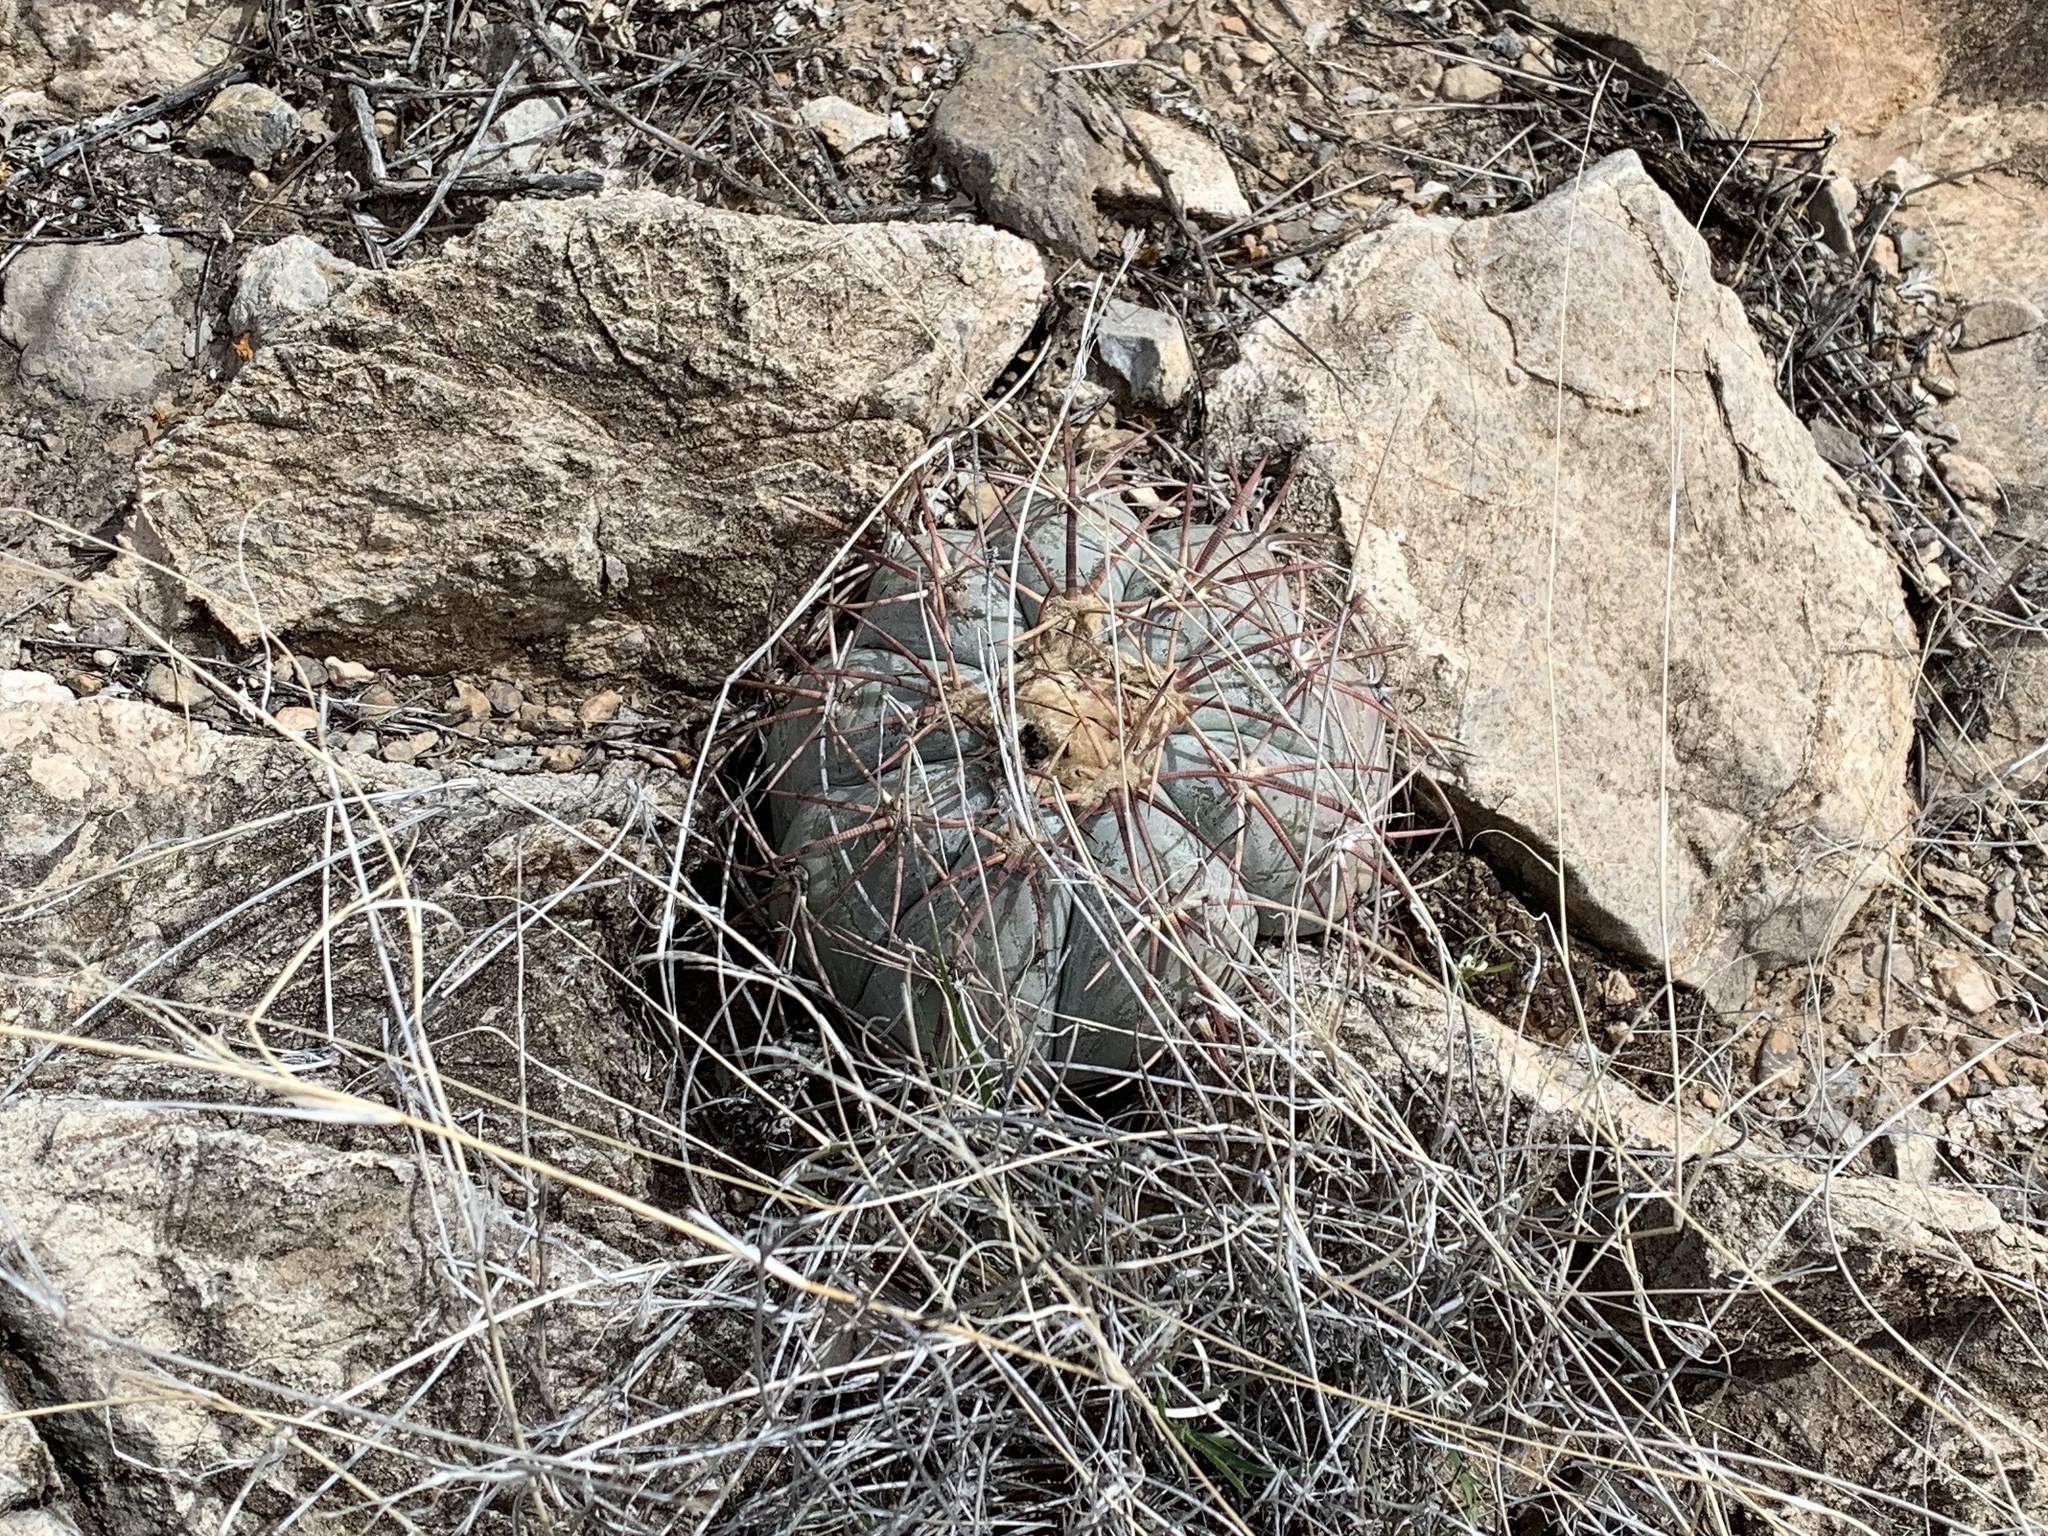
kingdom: Plantae
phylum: Tracheophyta
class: Magnoliopsida
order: Caryophyllales
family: Cactaceae
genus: Echinocactus
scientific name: Echinocactus horizonthalonius
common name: Devilshead
